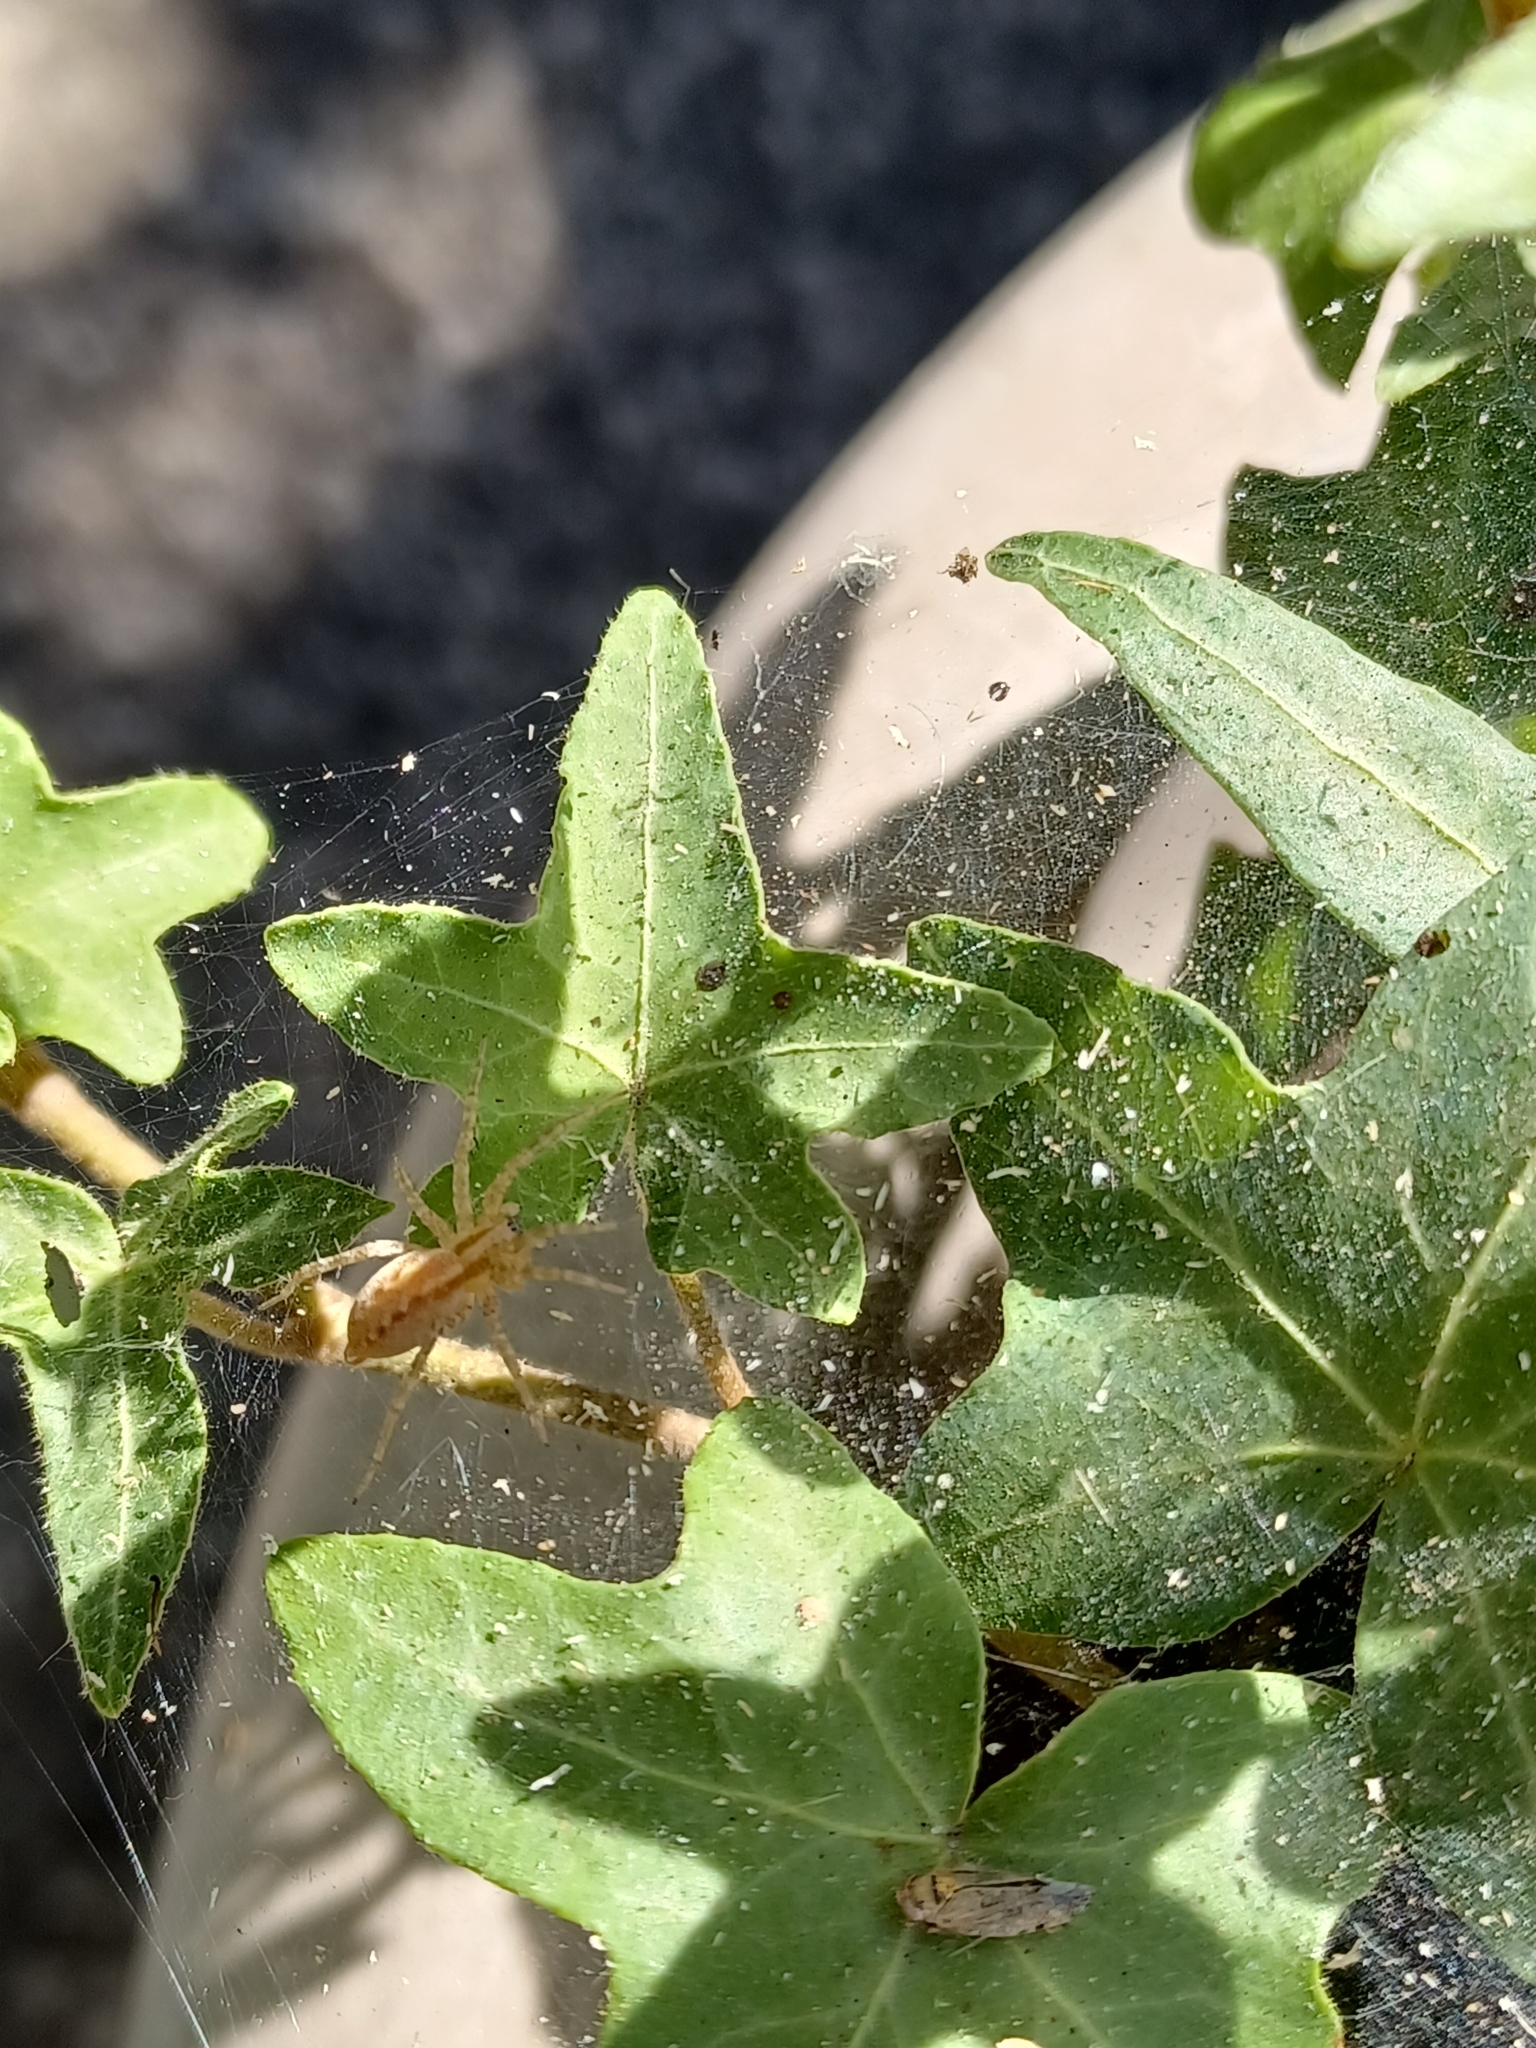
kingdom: Animalia
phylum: Arthropoda
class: Arachnida
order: Araneae
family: Agelenidae
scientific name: Agelenidae
